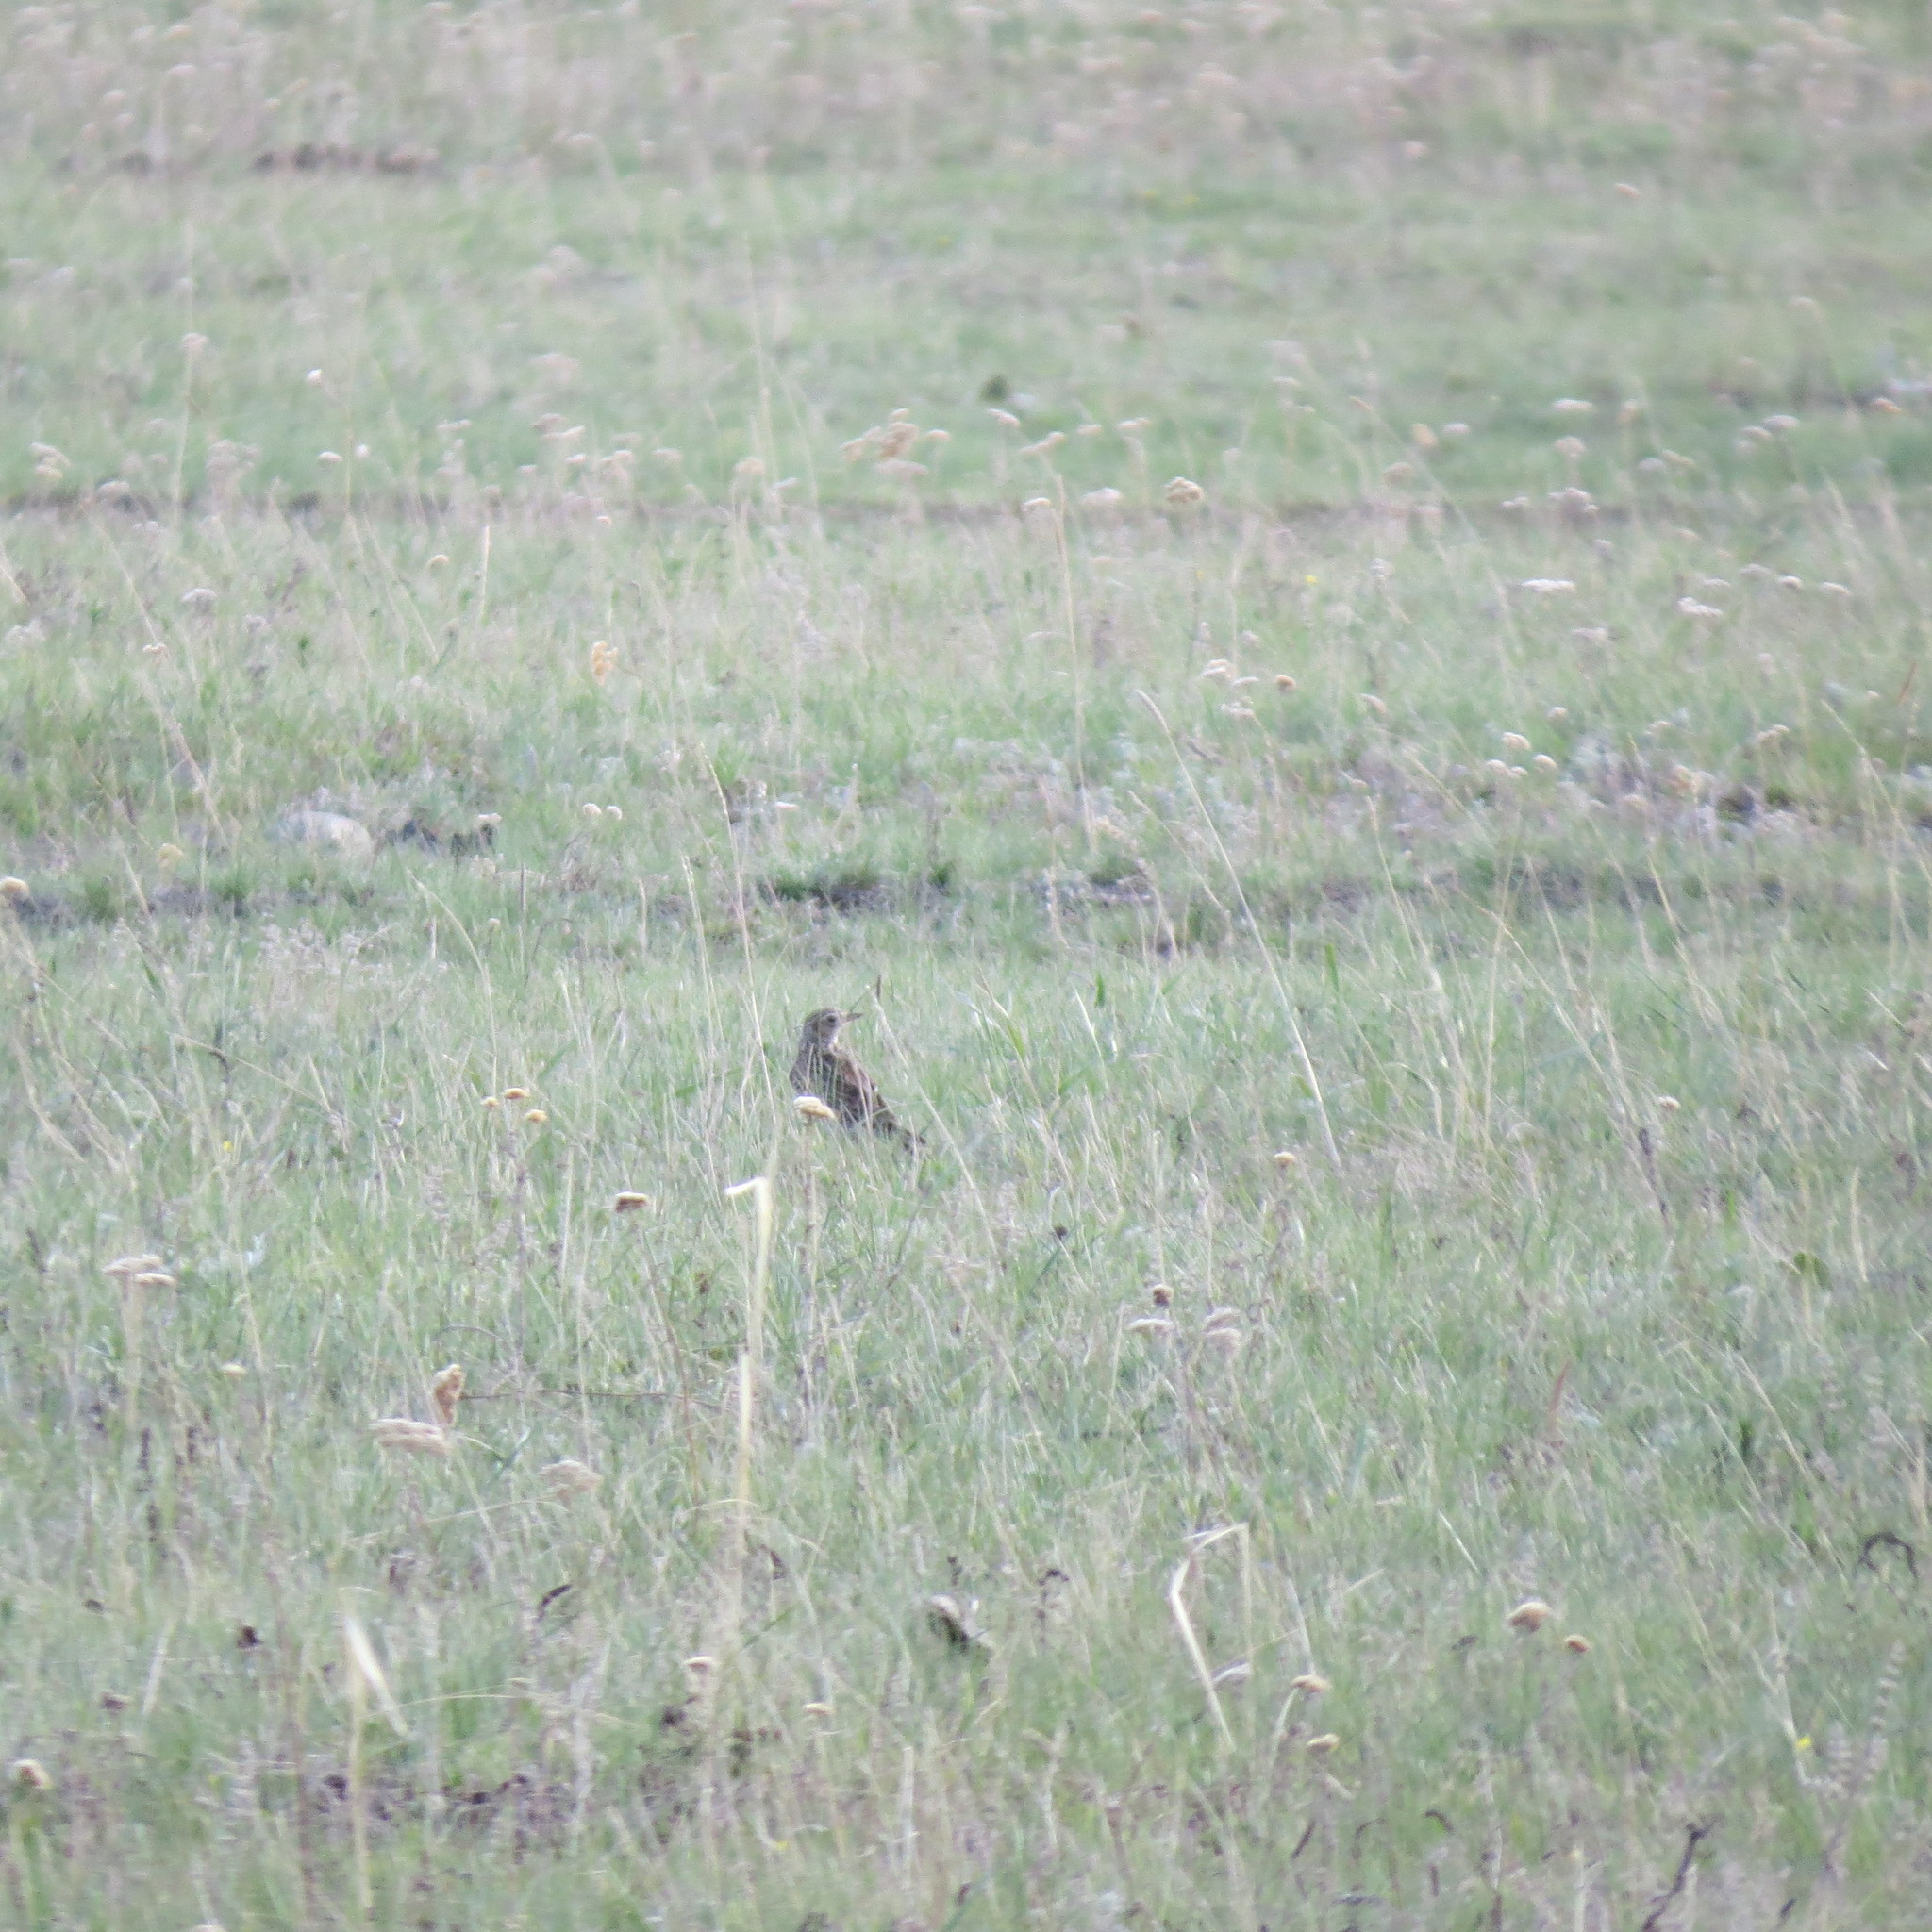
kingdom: Animalia
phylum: Chordata
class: Aves
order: Passeriformes
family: Alaudidae
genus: Alauda
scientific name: Alauda arvensis
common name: Eurasian skylark
